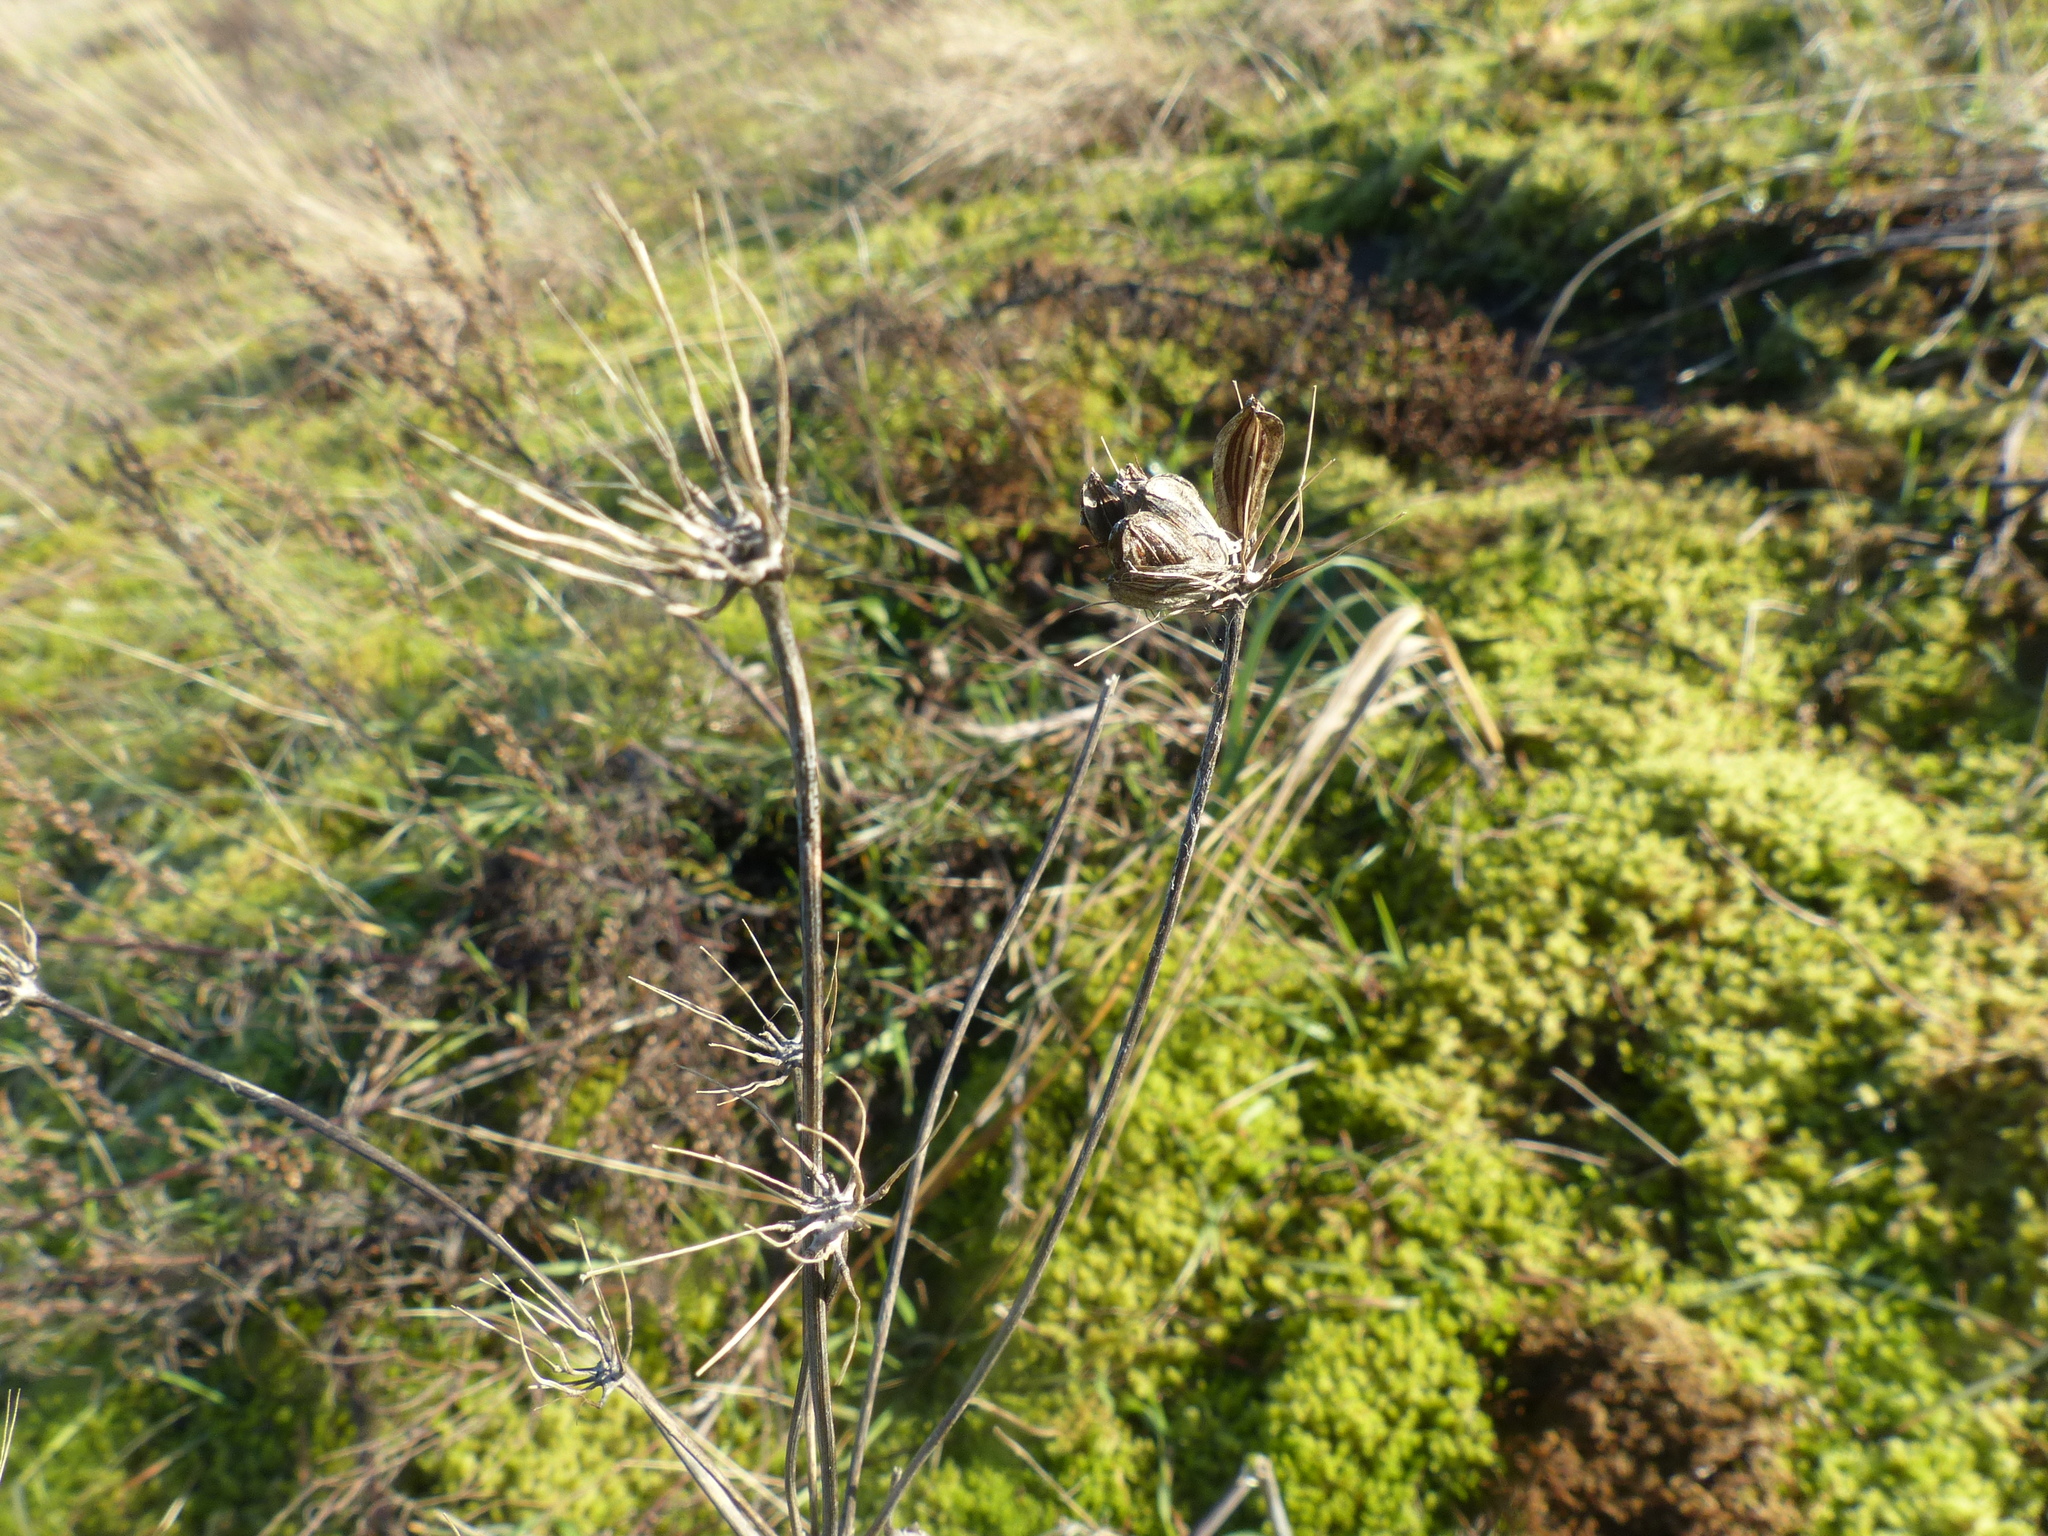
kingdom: Plantae
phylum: Tracheophyta
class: Magnoliopsida
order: Apiales
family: Apiaceae
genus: Lomatium
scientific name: Lomatium nudicaule
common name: Pestle lomatium
